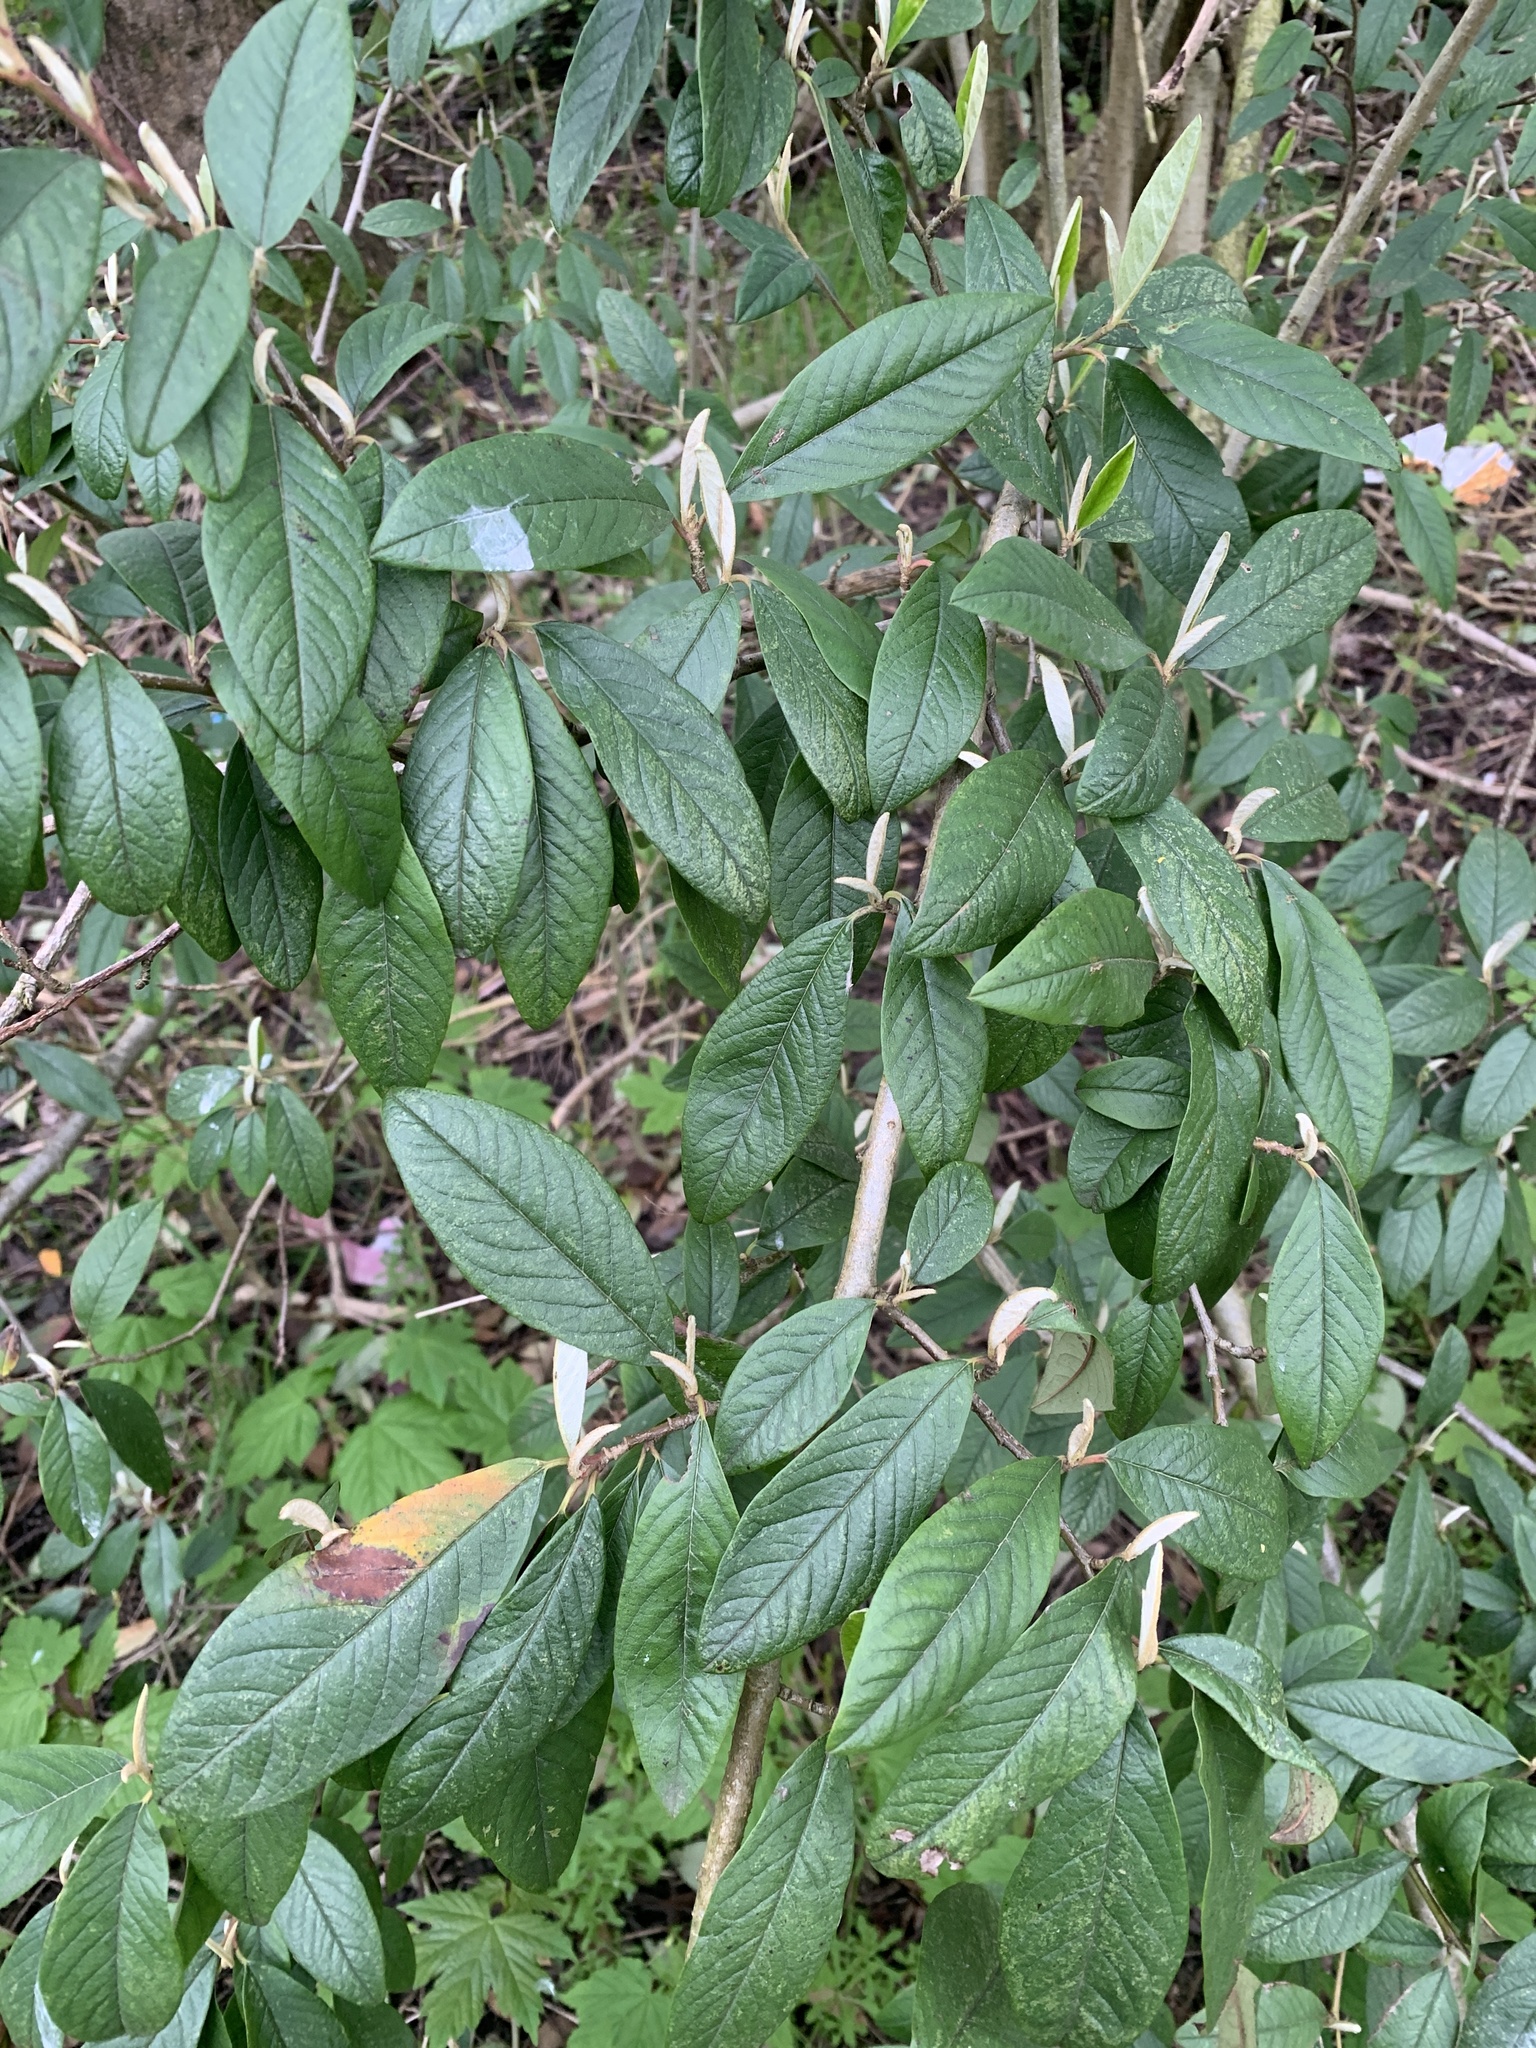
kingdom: Plantae
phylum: Tracheophyta
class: Magnoliopsida
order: Lamiales
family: Scrophulariaceae
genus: Buddleja
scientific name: Buddleja davidii
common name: Butterfly-bush
